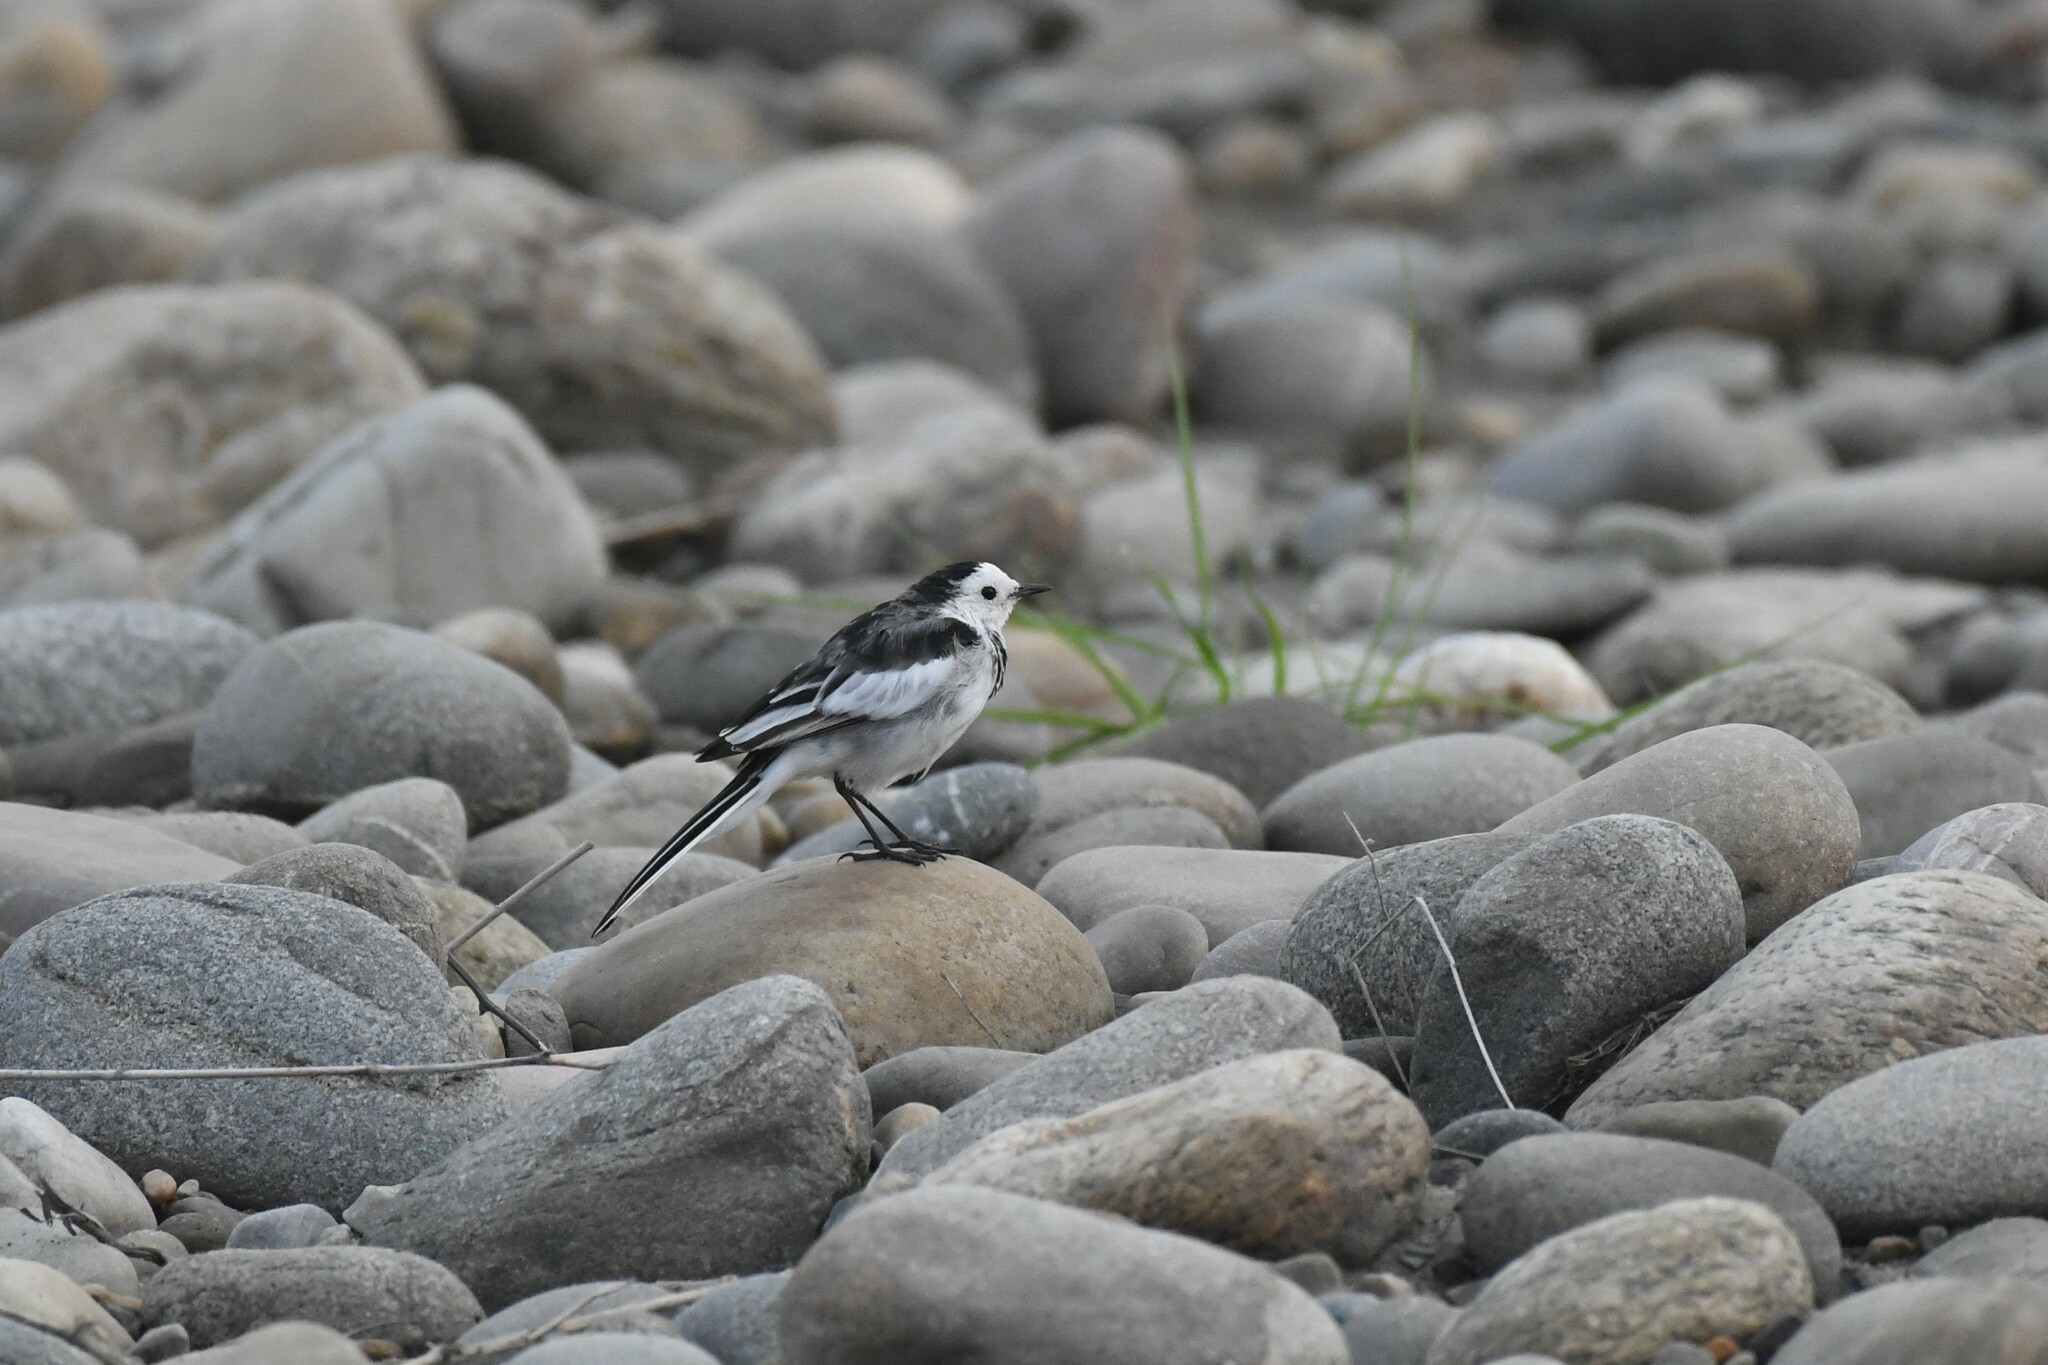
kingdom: Animalia
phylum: Chordata
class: Aves
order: Passeriformes
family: Motacillidae
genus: Motacilla
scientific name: Motacilla alba
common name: White wagtail
